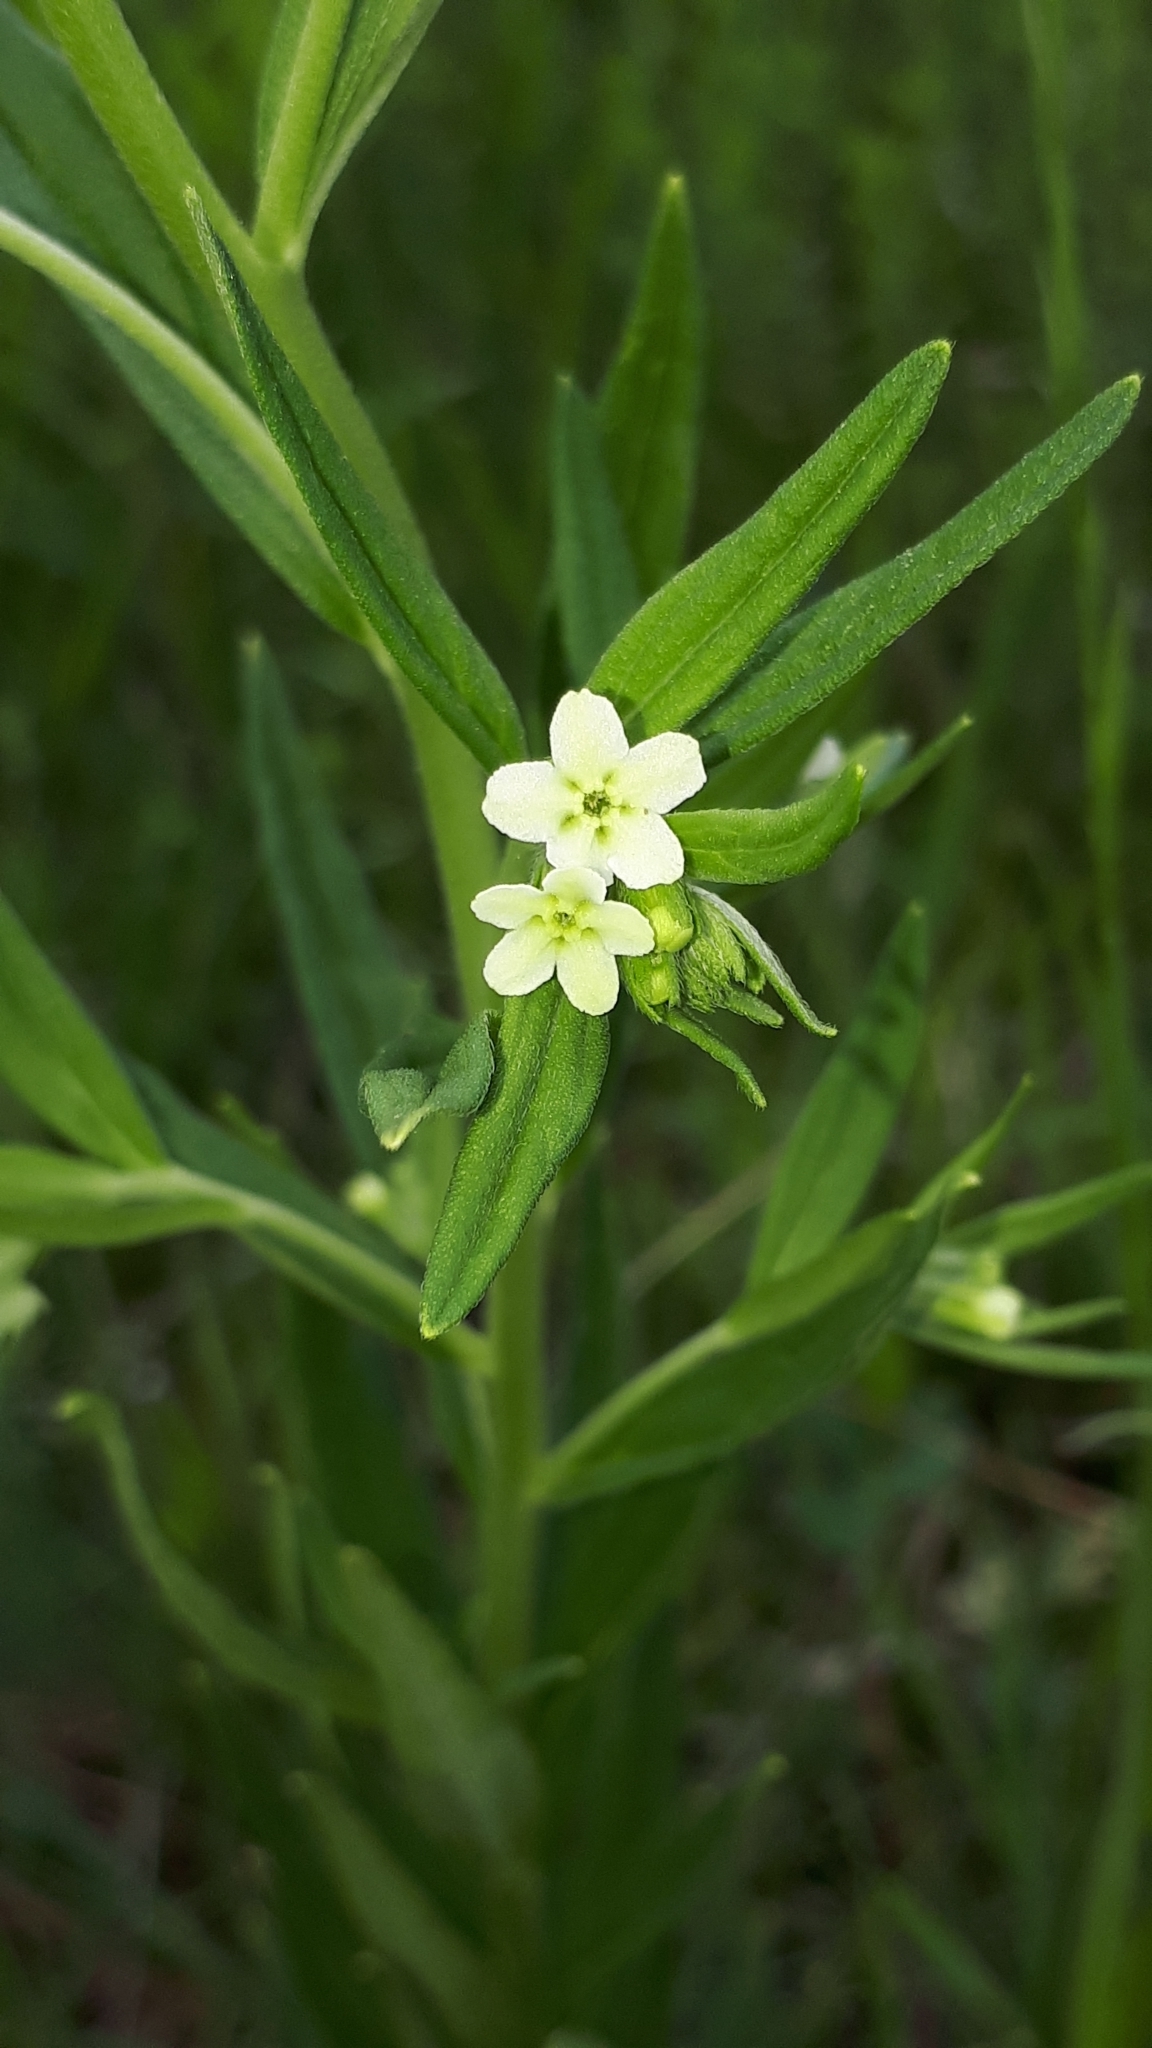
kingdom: Plantae
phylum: Tracheophyta
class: Magnoliopsida
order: Boraginales
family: Boraginaceae
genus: Lithospermum
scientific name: Lithospermum officinale
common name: Common gromwell
